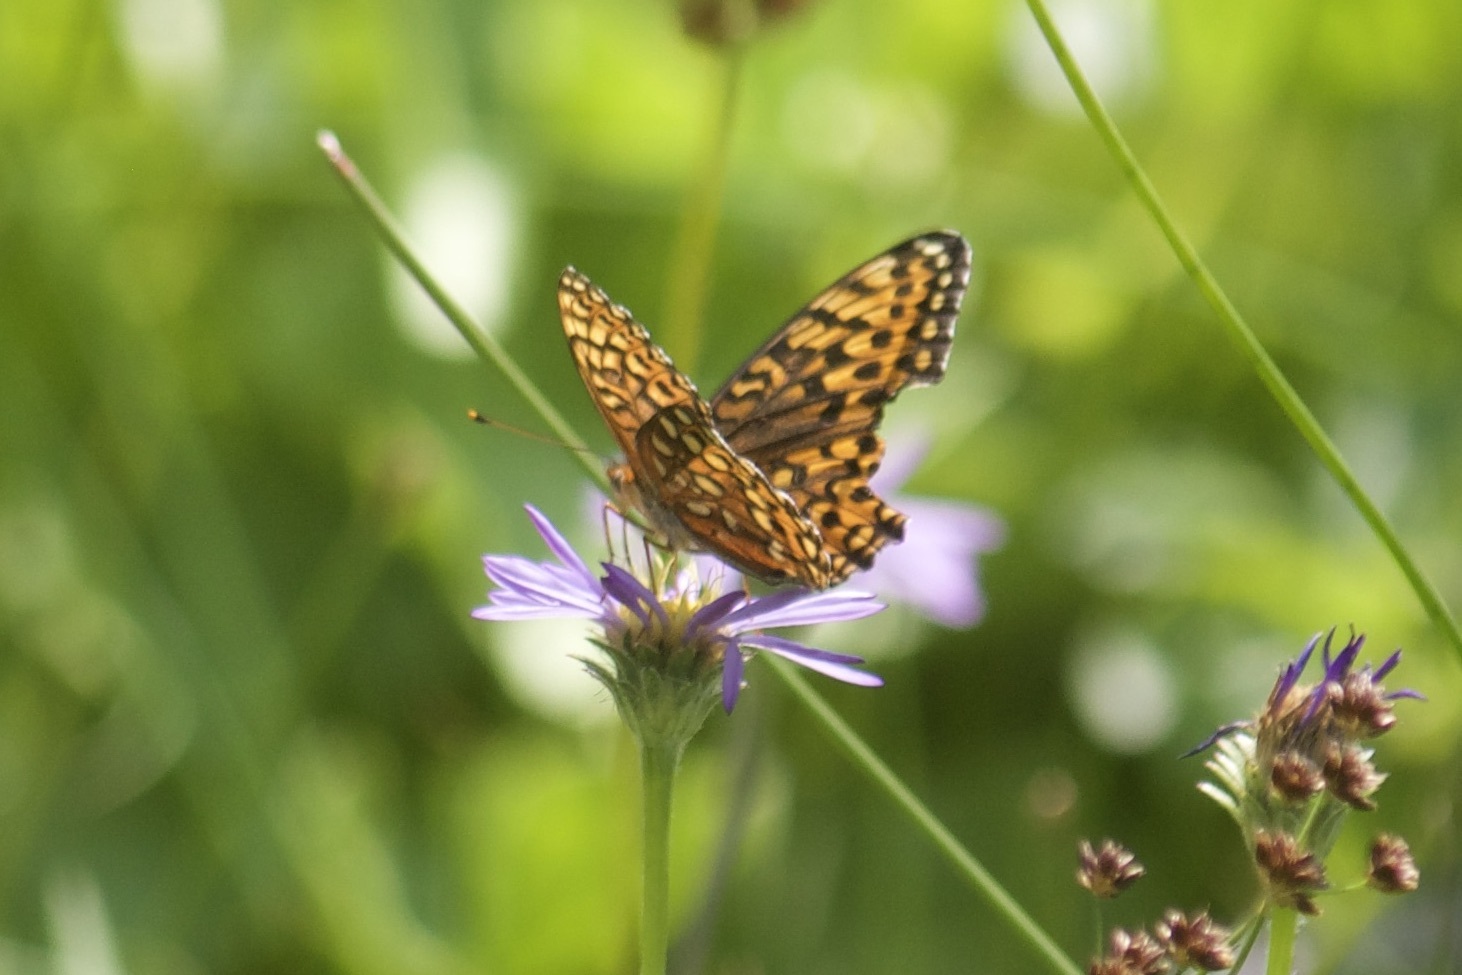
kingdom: Animalia
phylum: Arthropoda
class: Insecta
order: Lepidoptera
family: Nymphalidae
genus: Speyeria
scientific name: Speyeria hydaspe
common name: Hydaspe fritillary
